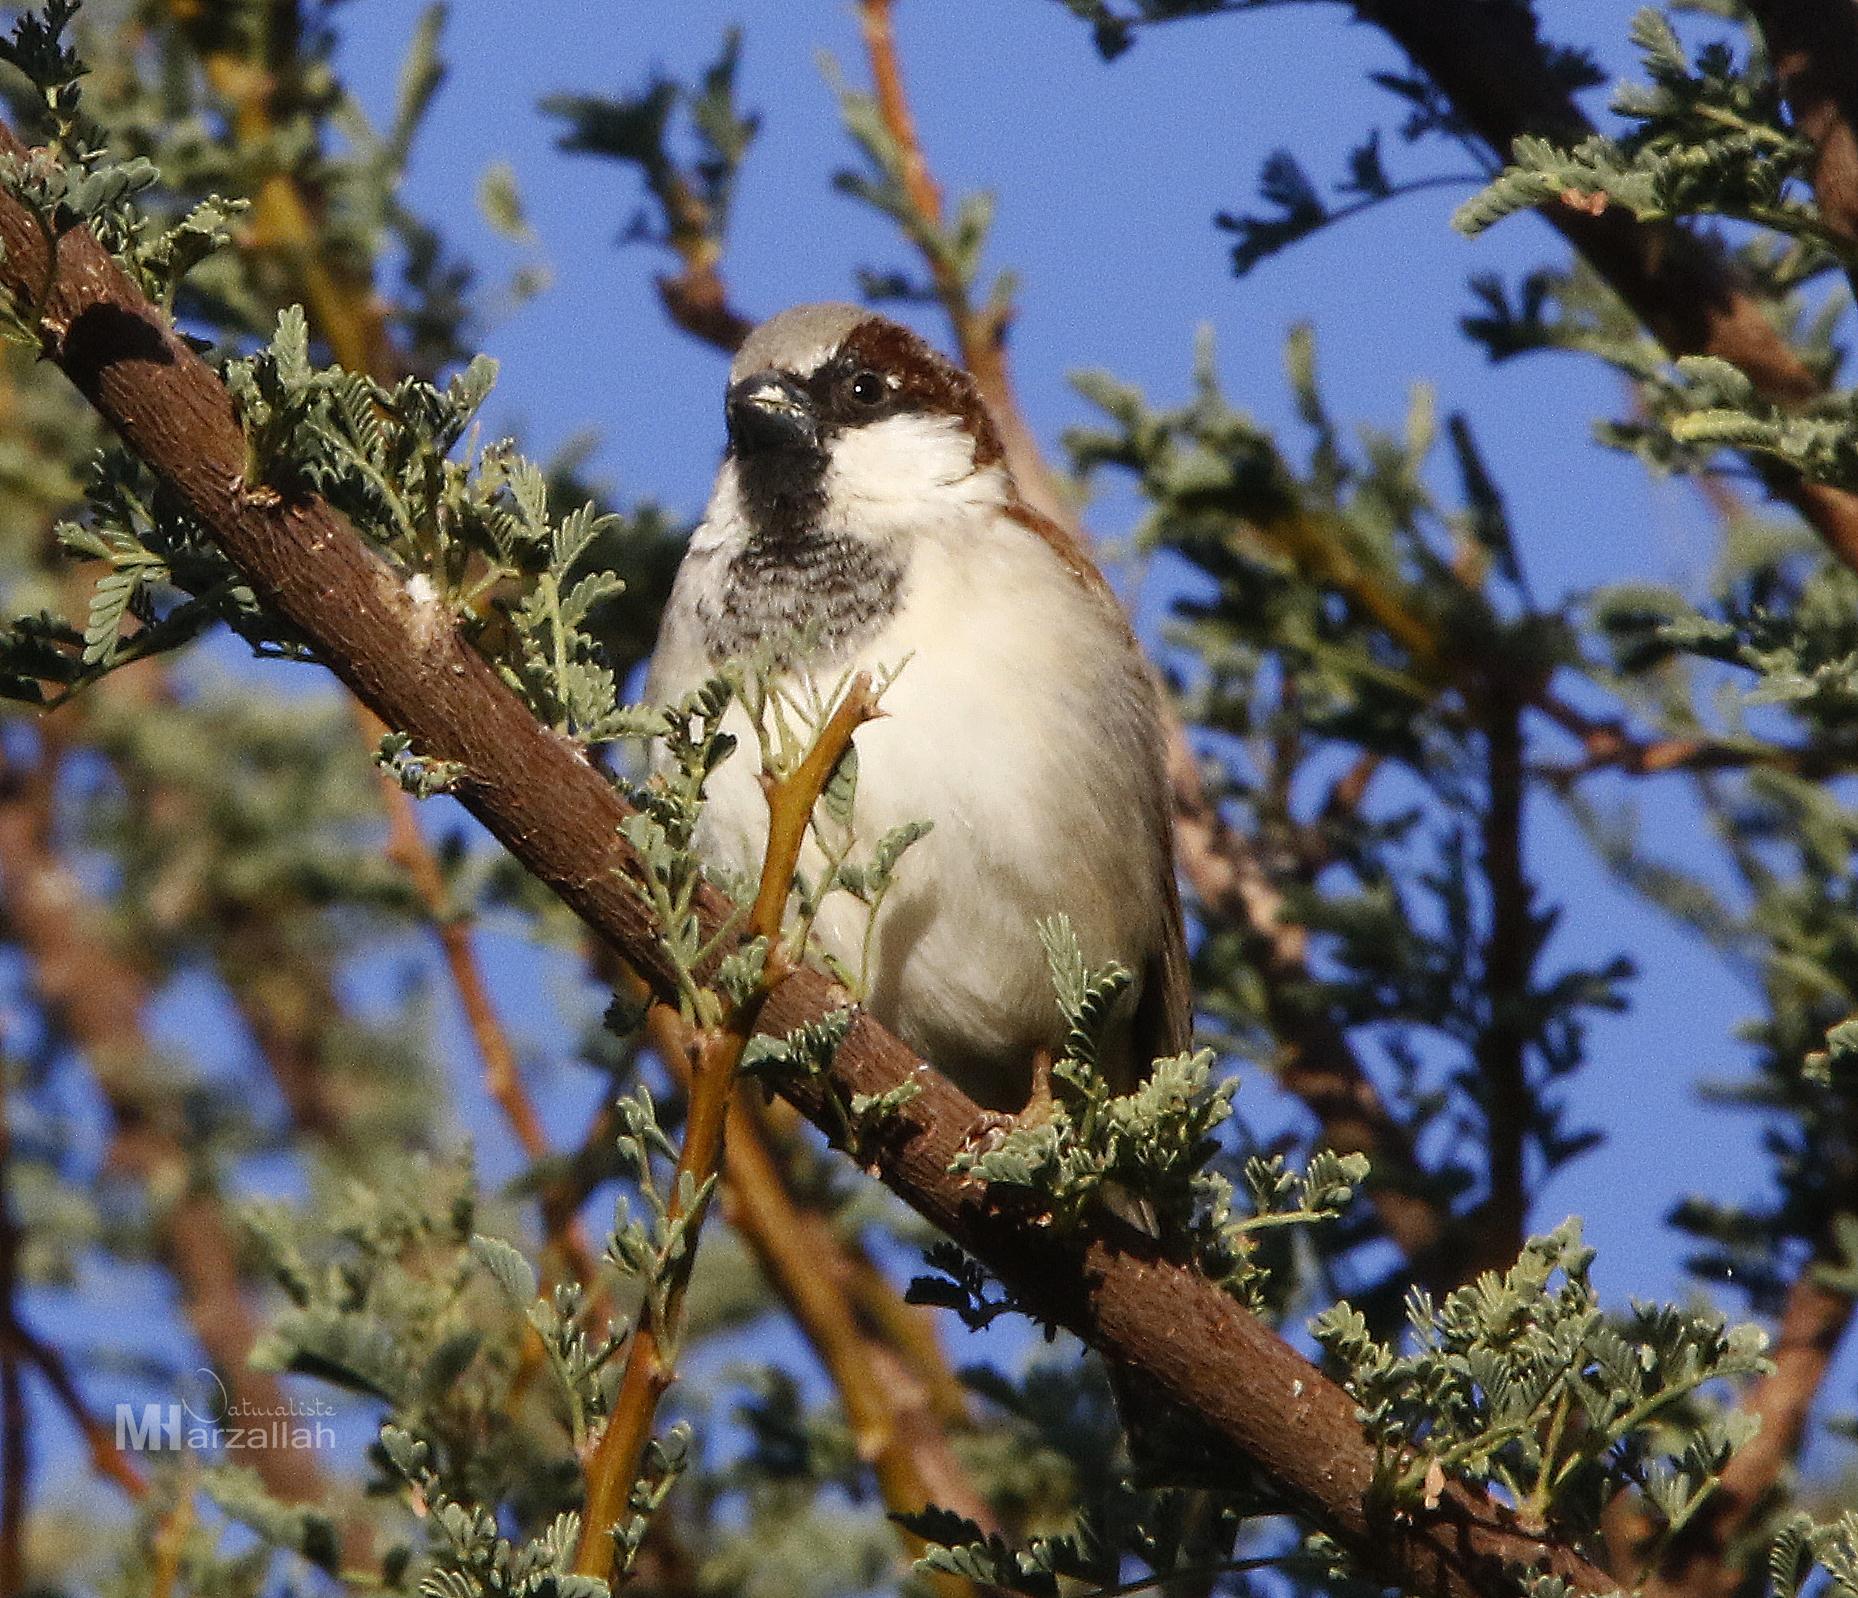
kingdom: Animalia
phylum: Chordata
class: Aves
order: Passeriformes
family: Passeridae
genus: Passer
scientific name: Passer domesticus
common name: House sparrow
